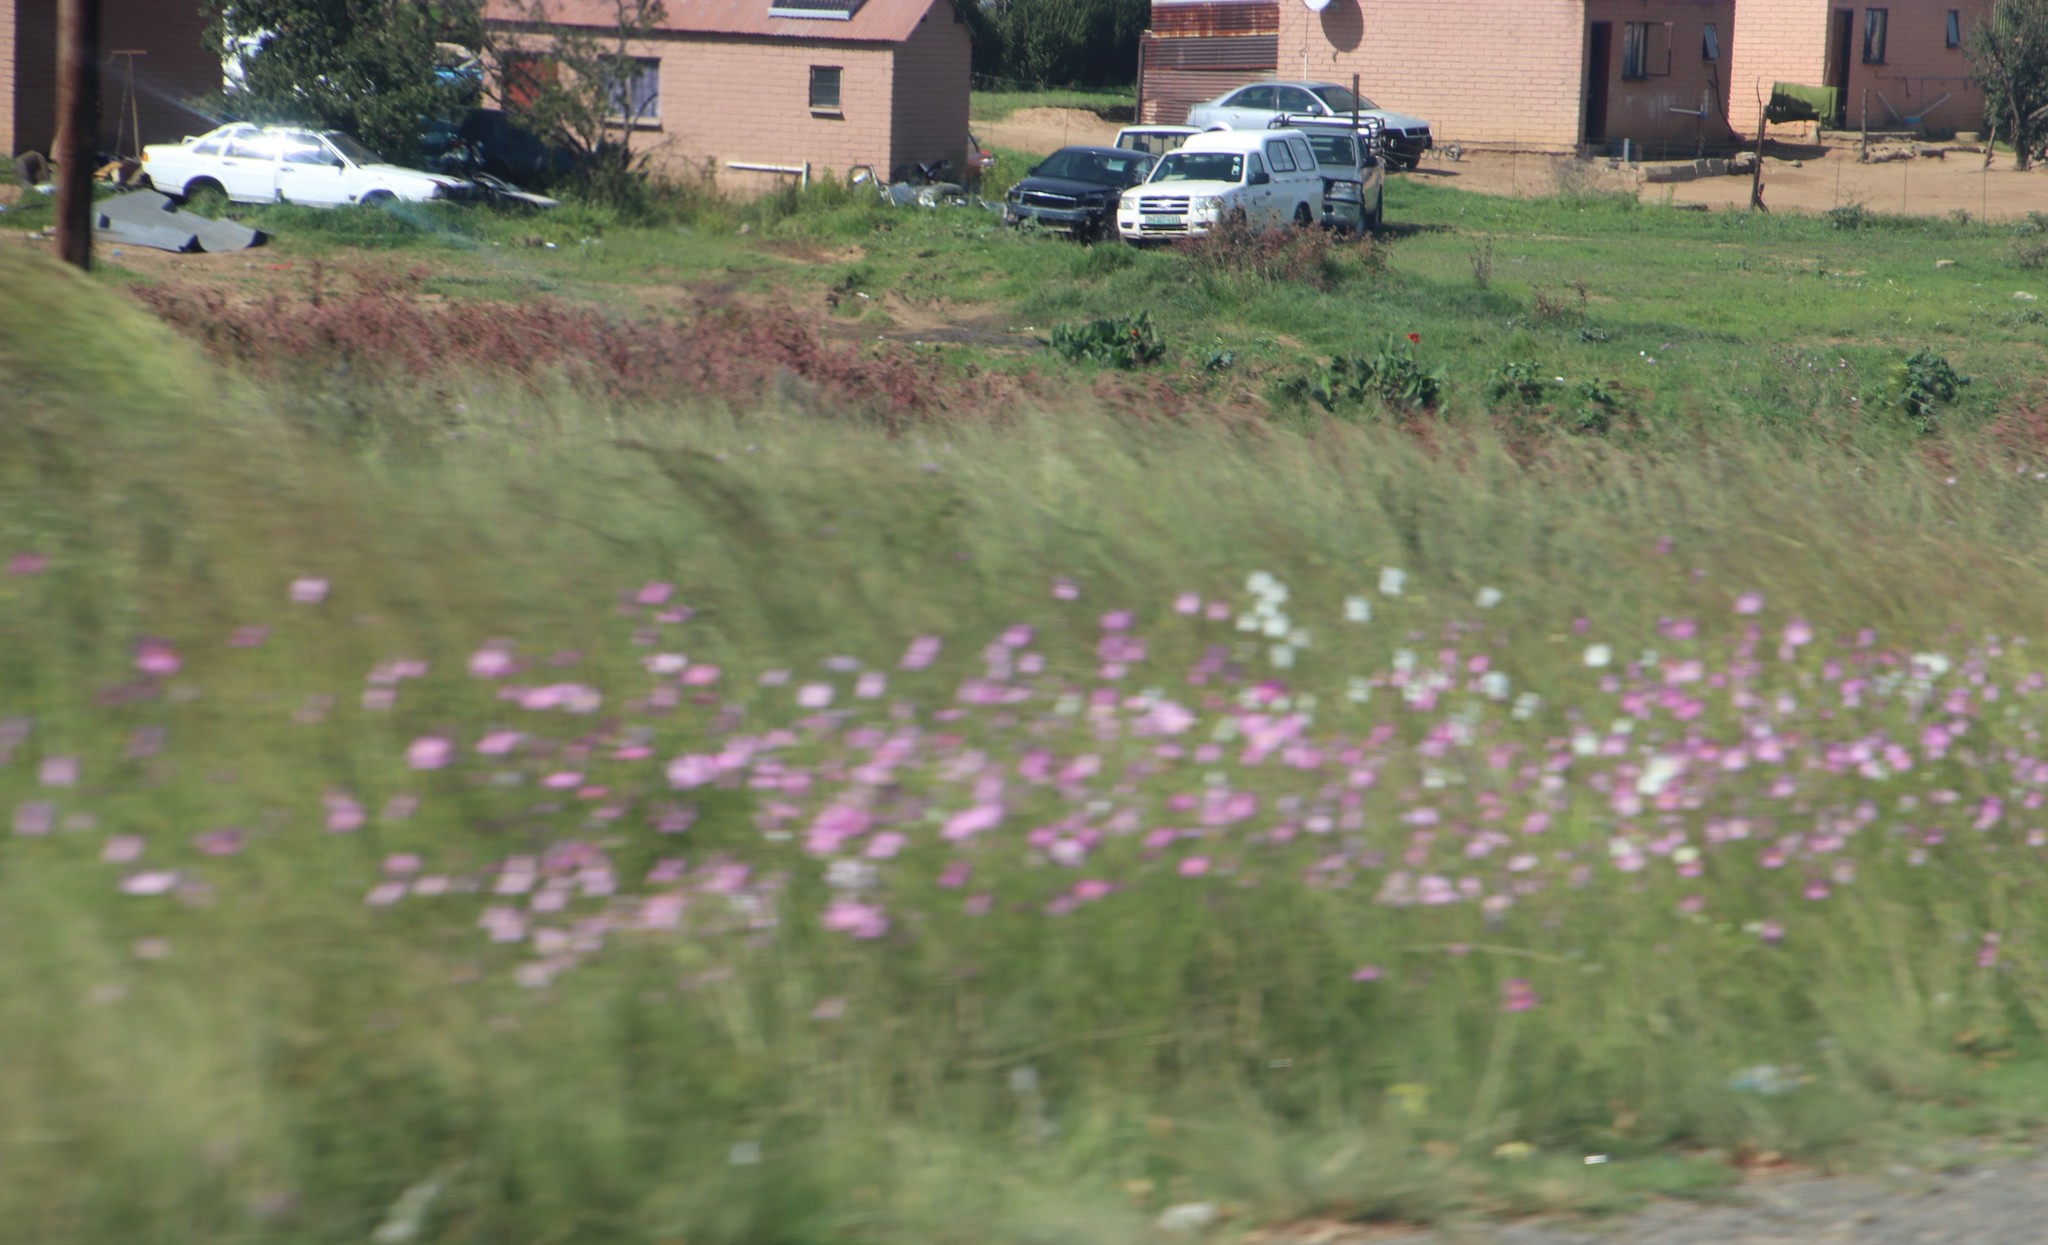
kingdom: Plantae
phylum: Tracheophyta
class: Magnoliopsida
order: Asterales
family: Asteraceae
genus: Cosmos
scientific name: Cosmos bipinnatus
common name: Garden cosmos
